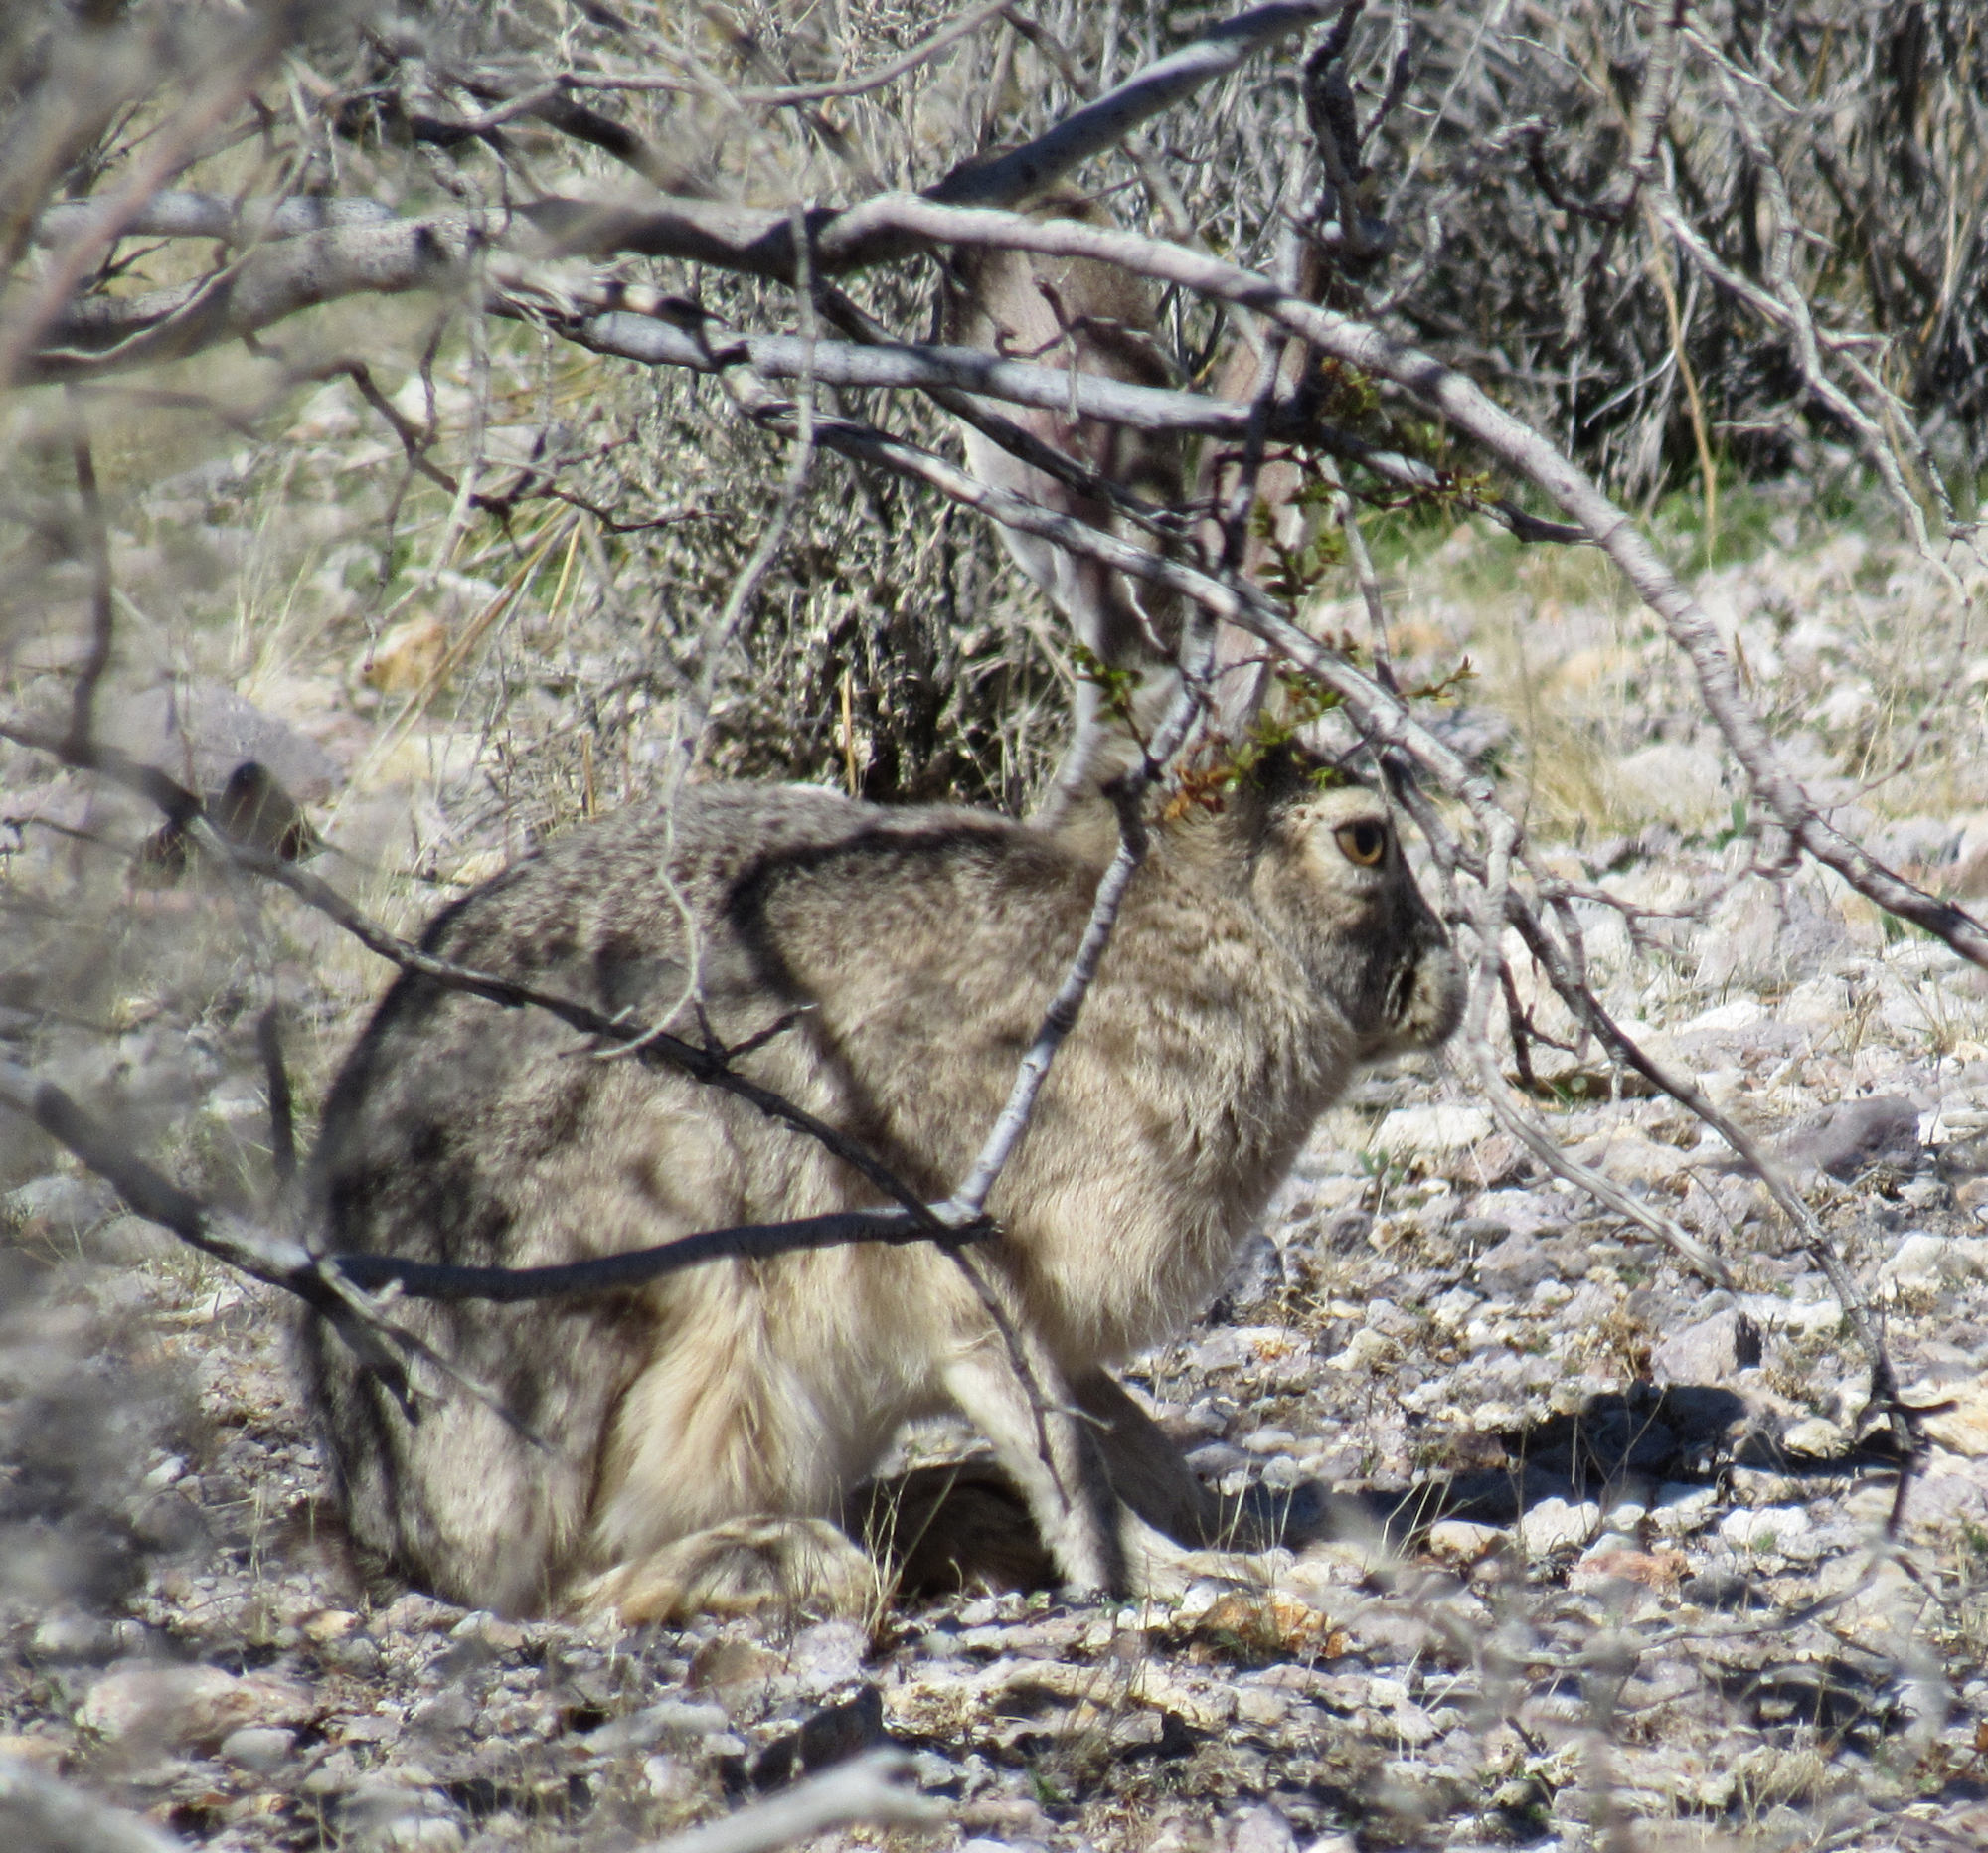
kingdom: Animalia
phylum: Chordata
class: Mammalia
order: Lagomorpha
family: Leporidae
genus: Lepus
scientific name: Lepus californicus
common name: Black-tailed jackrabbit
